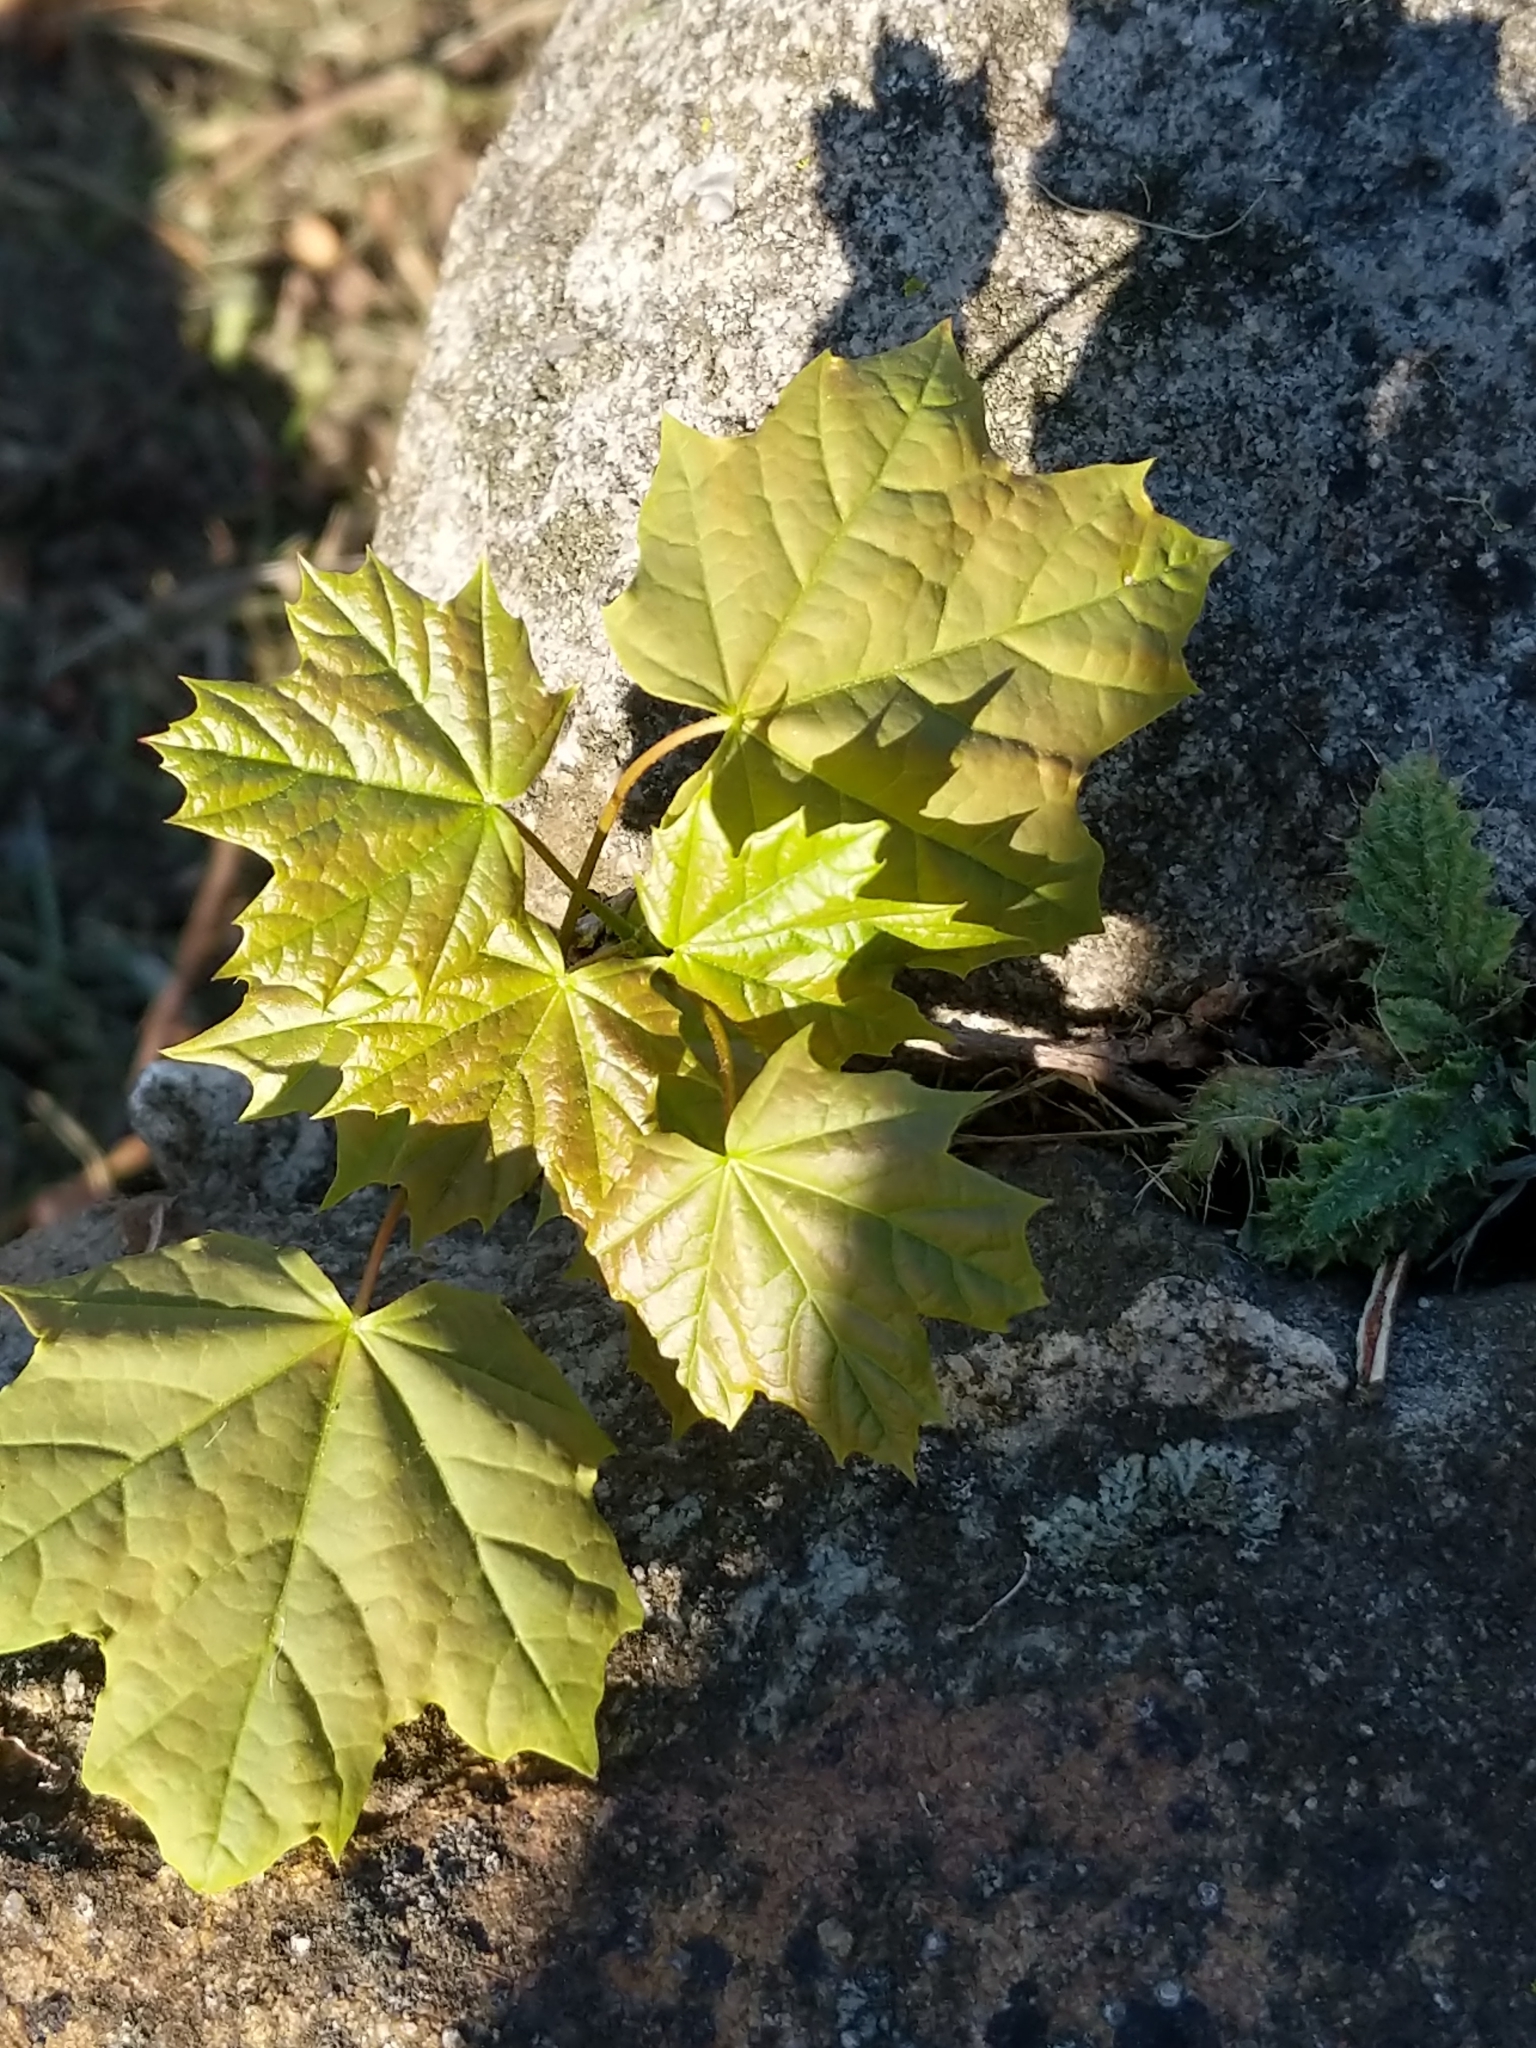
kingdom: Plantae
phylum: Tracheophyta
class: Magnoliopsida
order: Sapindales
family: Sapindaceae
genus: Acer
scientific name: Acer platanoides
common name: Norway maple
